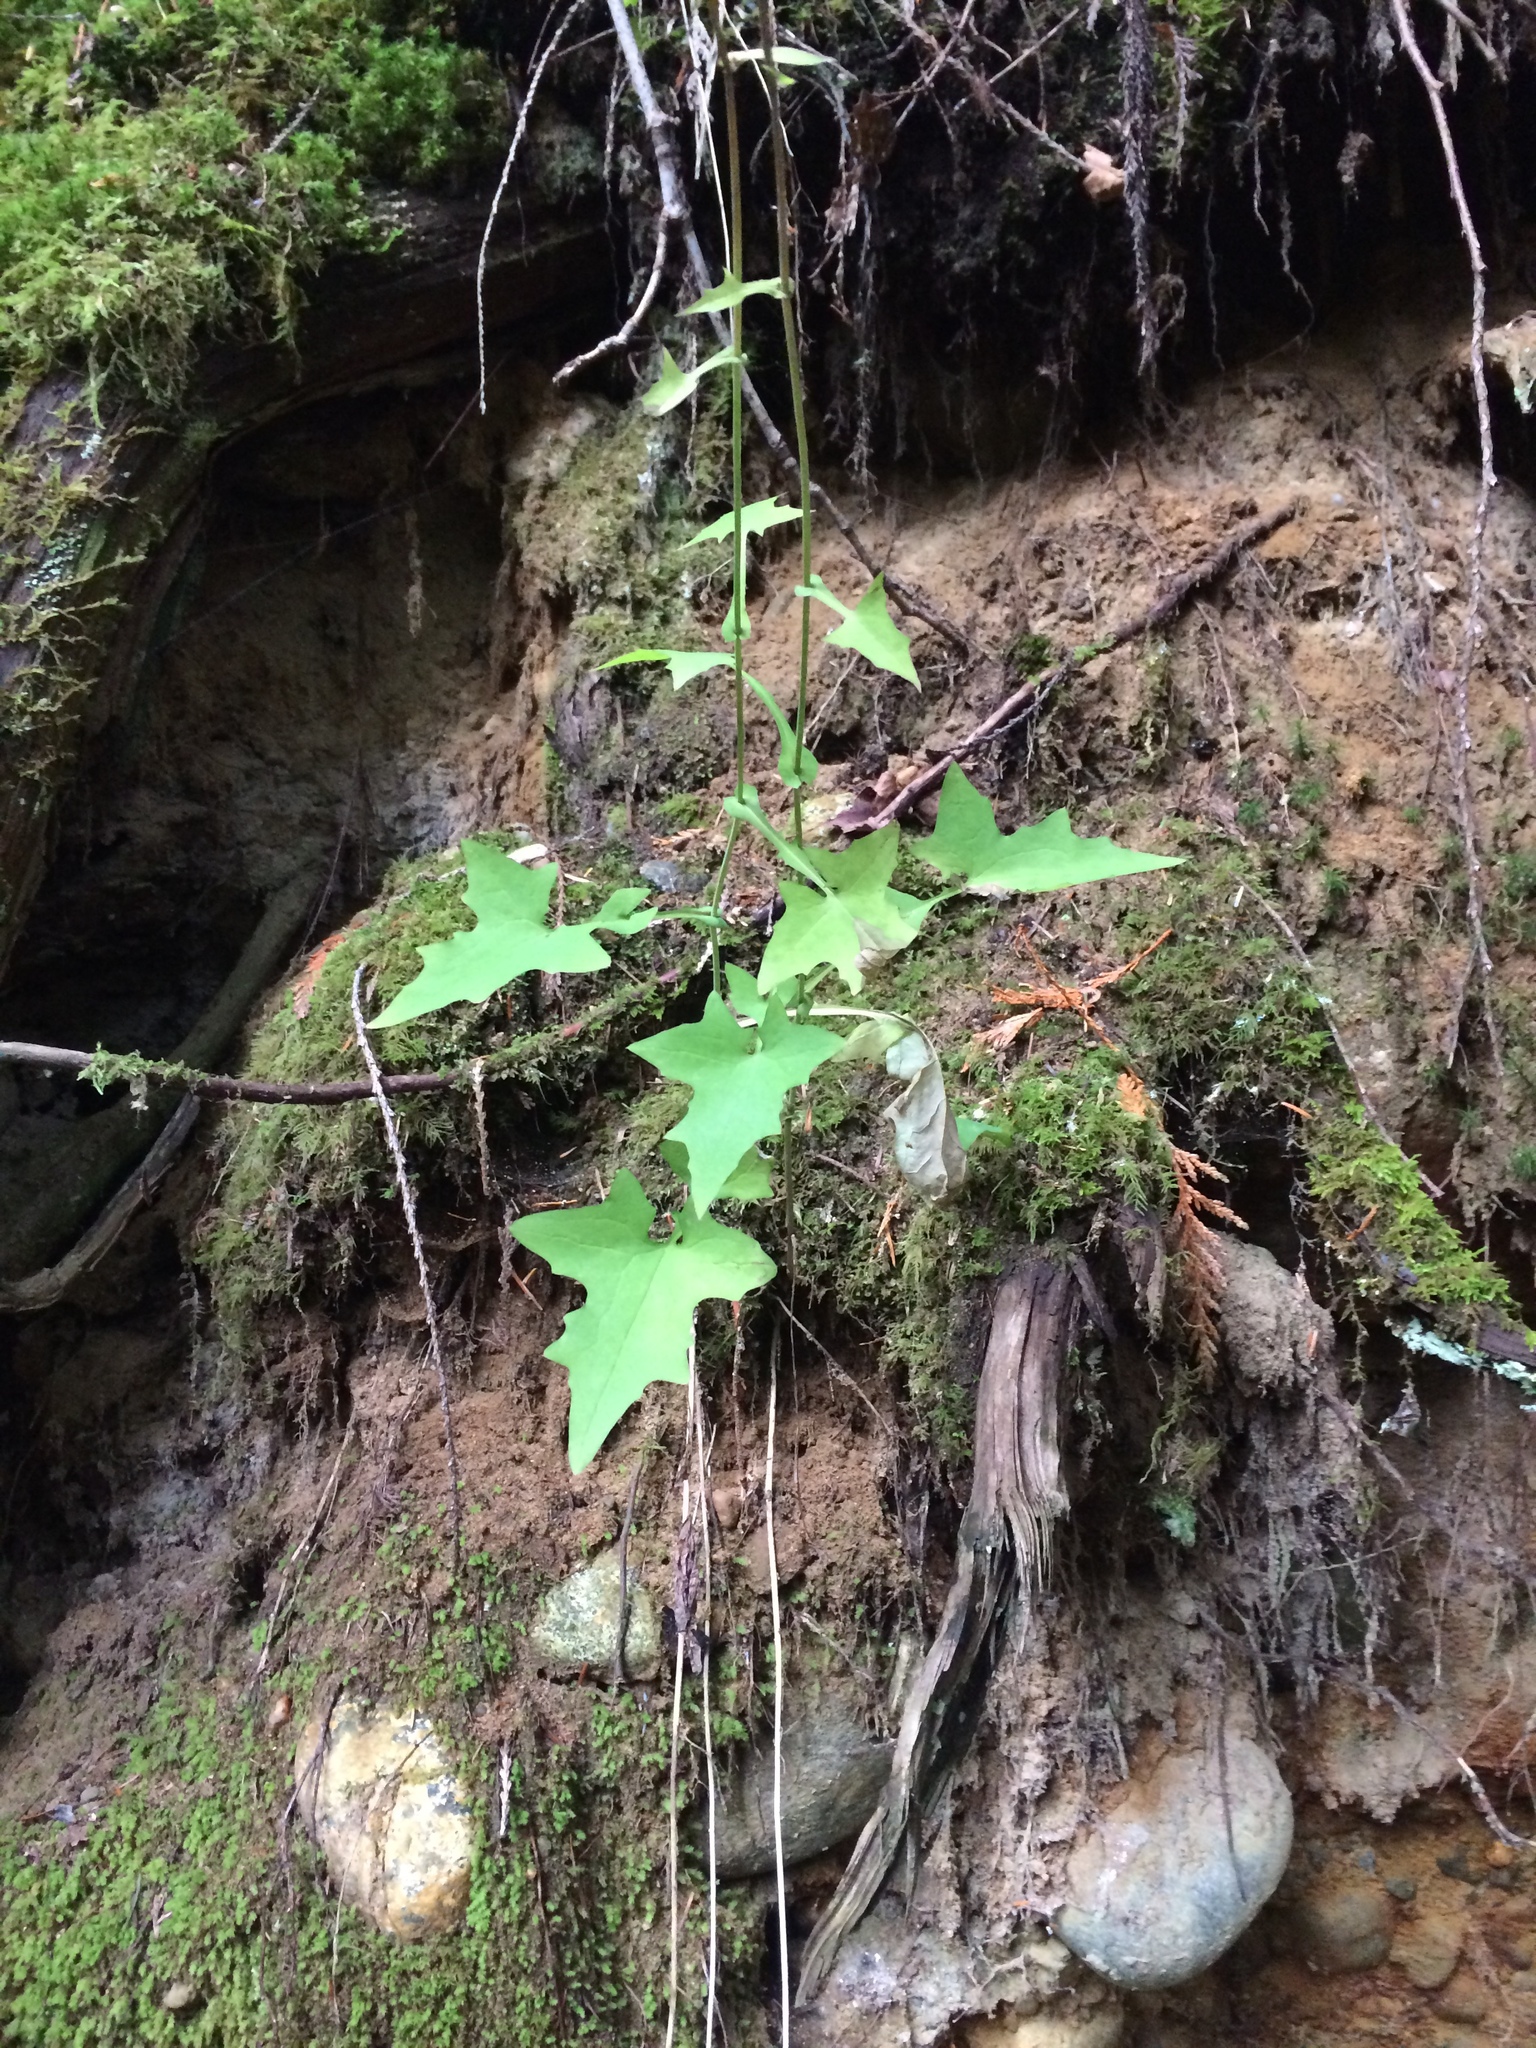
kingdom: Plantae
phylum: Tracheophyta
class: Magnoliopsida
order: Asterales
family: Asteraceae
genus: Mycelis
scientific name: Mycelis muralis
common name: Wall lettuce
